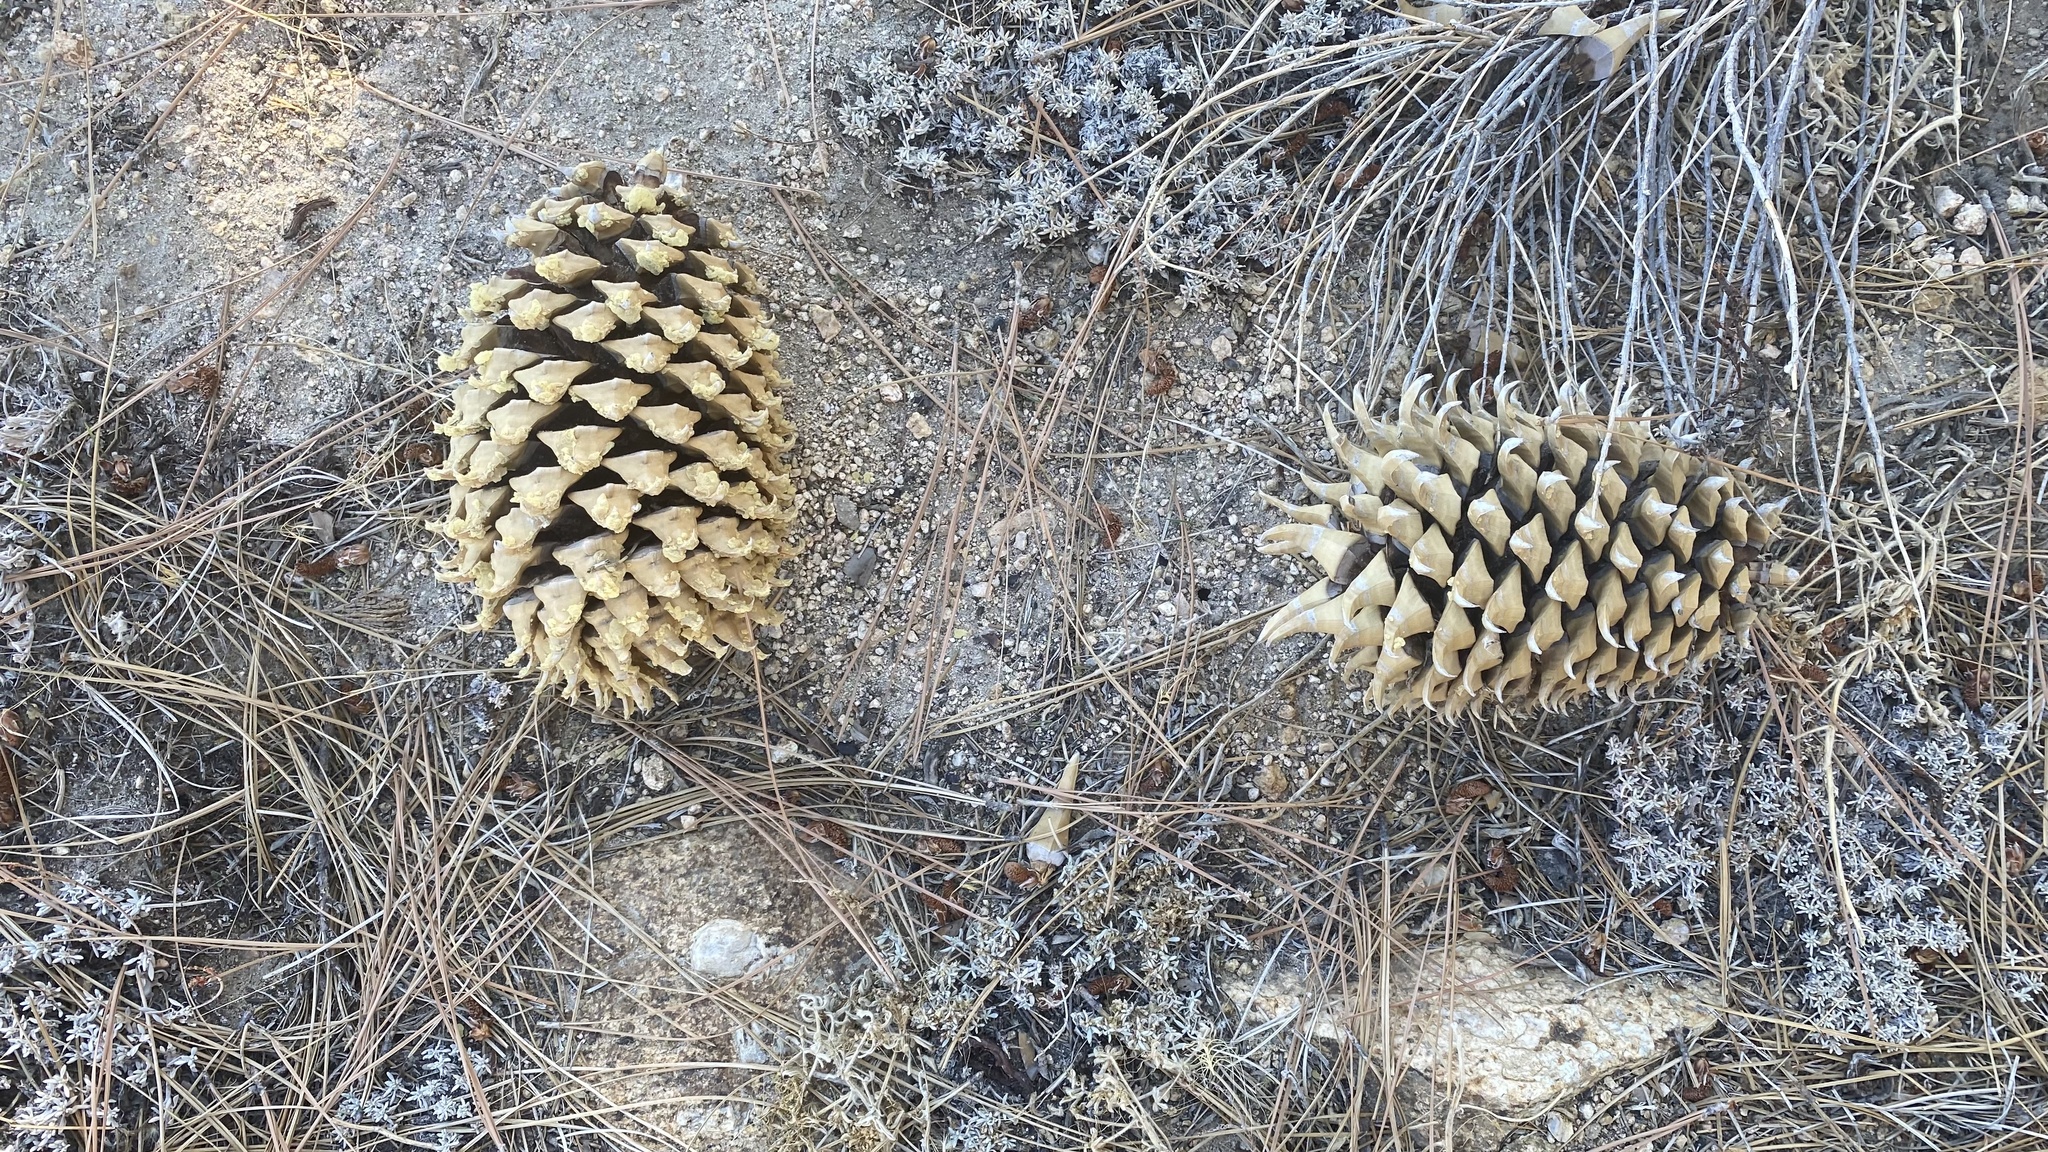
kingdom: Plantae
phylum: Tracheophyta
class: Pinopsida
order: Pinales
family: Pinaceae
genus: Pinus
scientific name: Pinus coulteri
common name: Coulter pine
